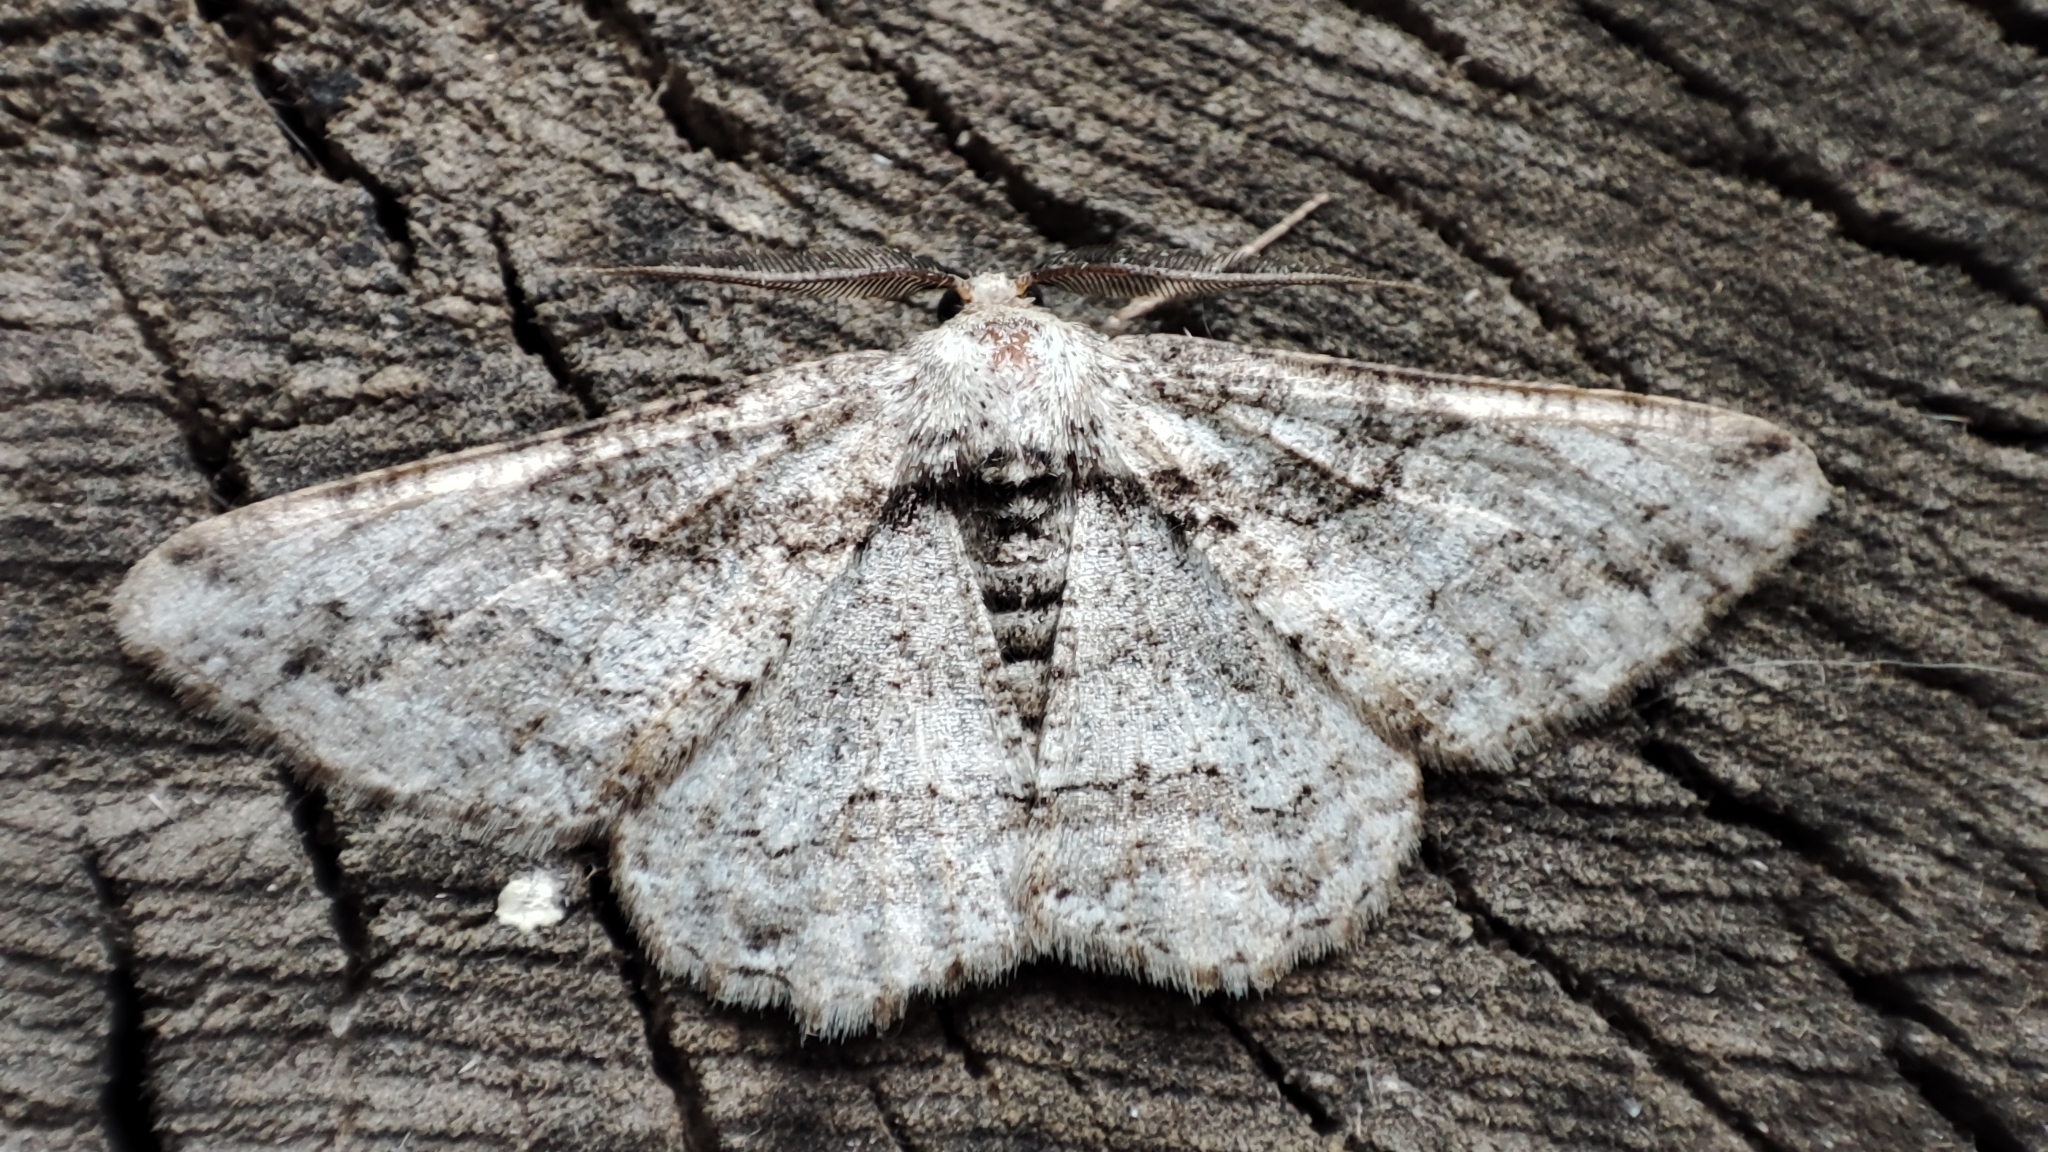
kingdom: Animalia
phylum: Arthropoda
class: Insecta
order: Lepidoptera
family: Geometridae
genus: Synopsia
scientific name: Synopsia sociaria
